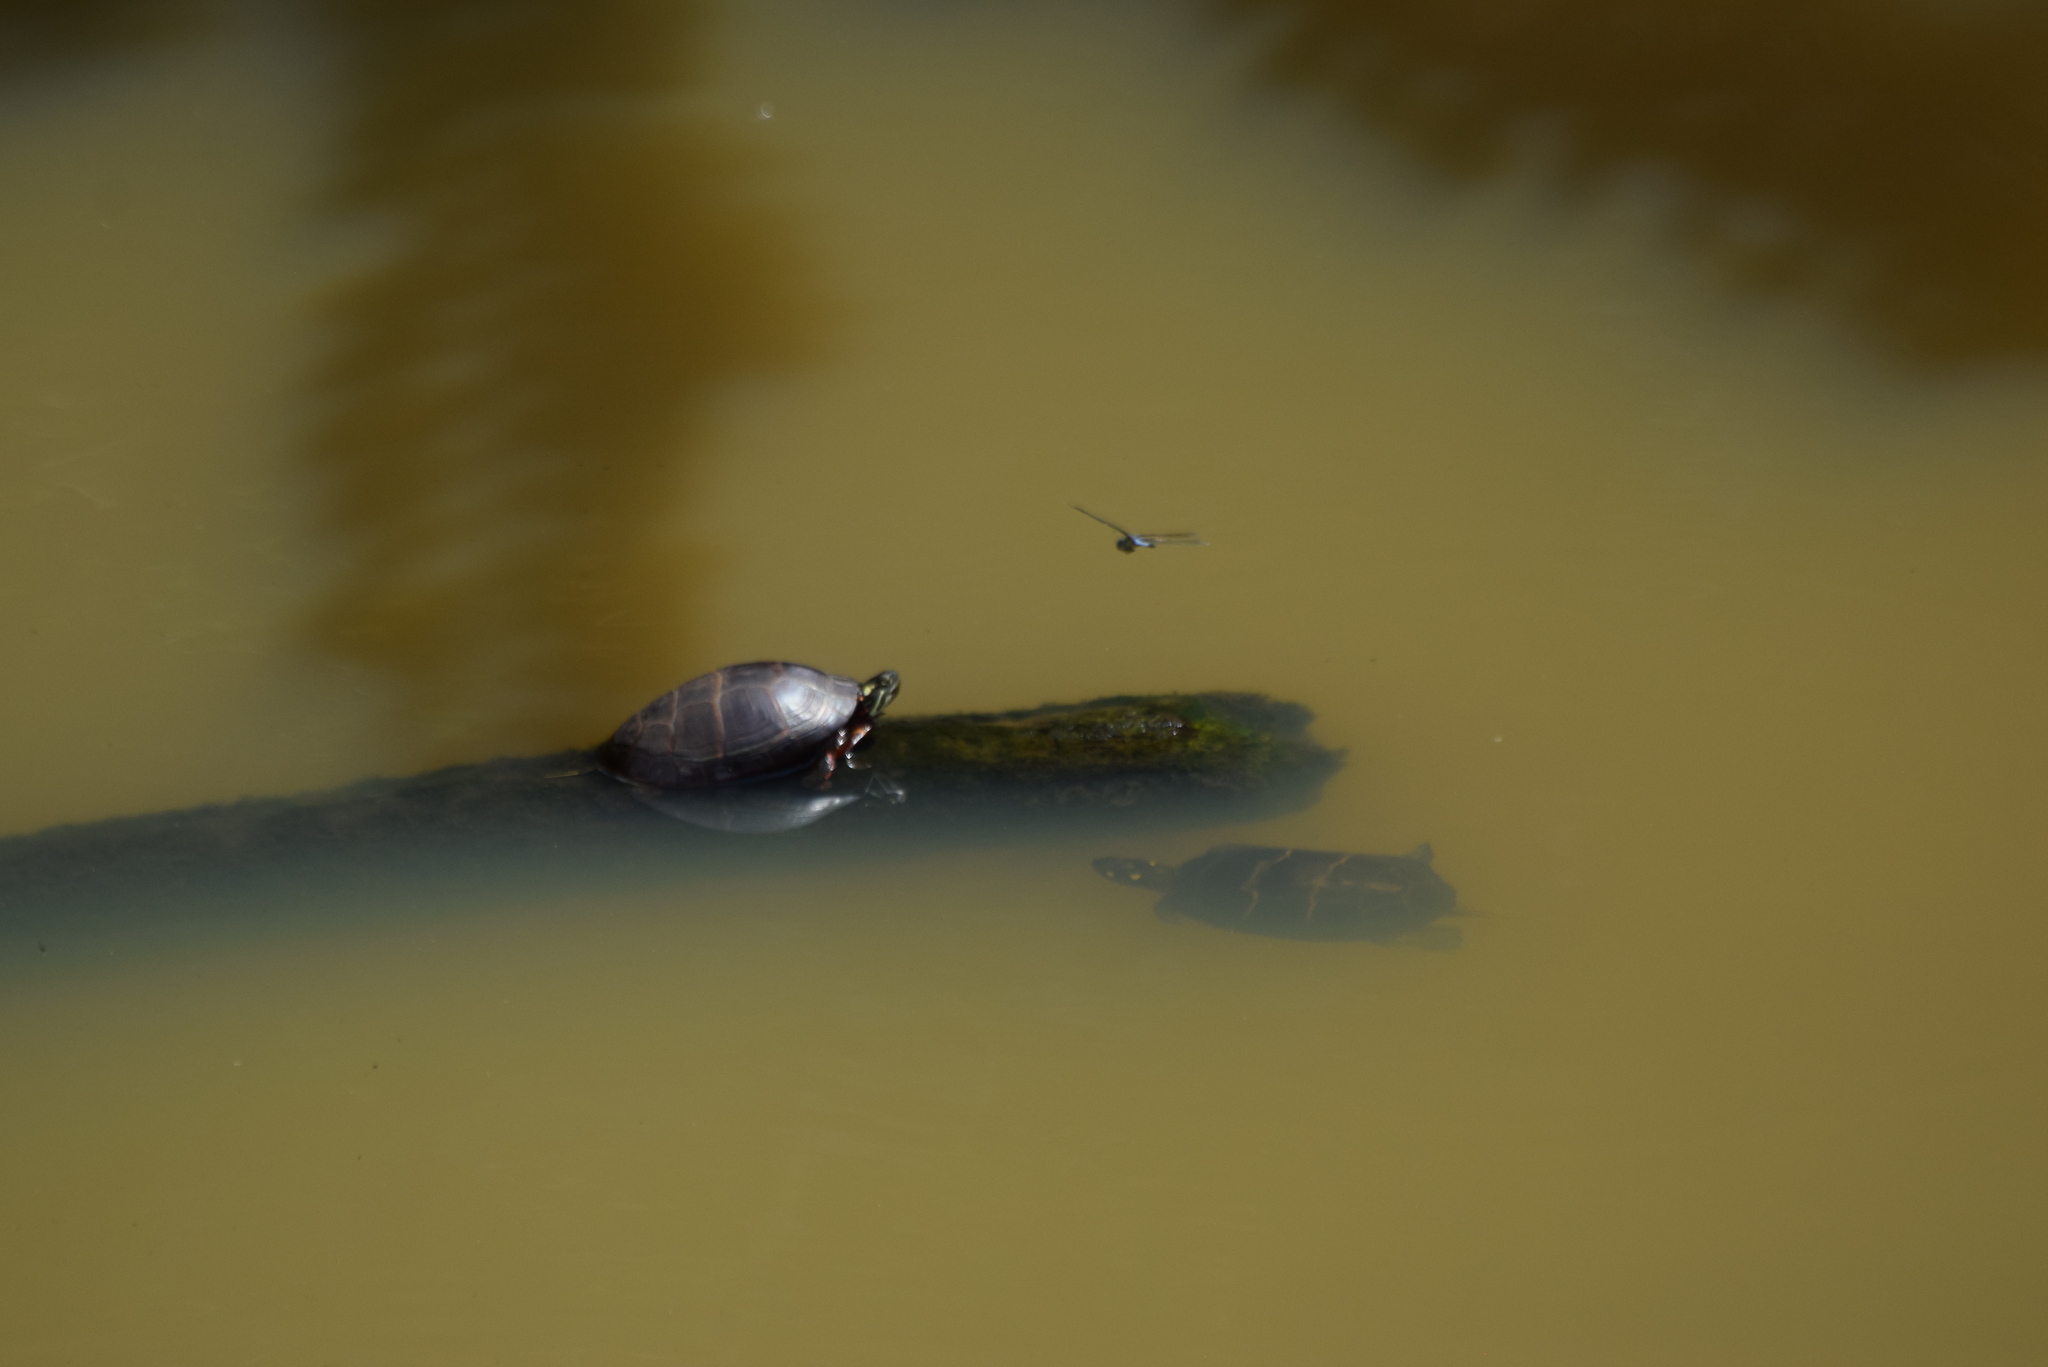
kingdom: Animalia
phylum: Chordata
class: Testudines
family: Emydidae
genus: Chrysemys
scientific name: Chrysemys picta
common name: Painted turtle
